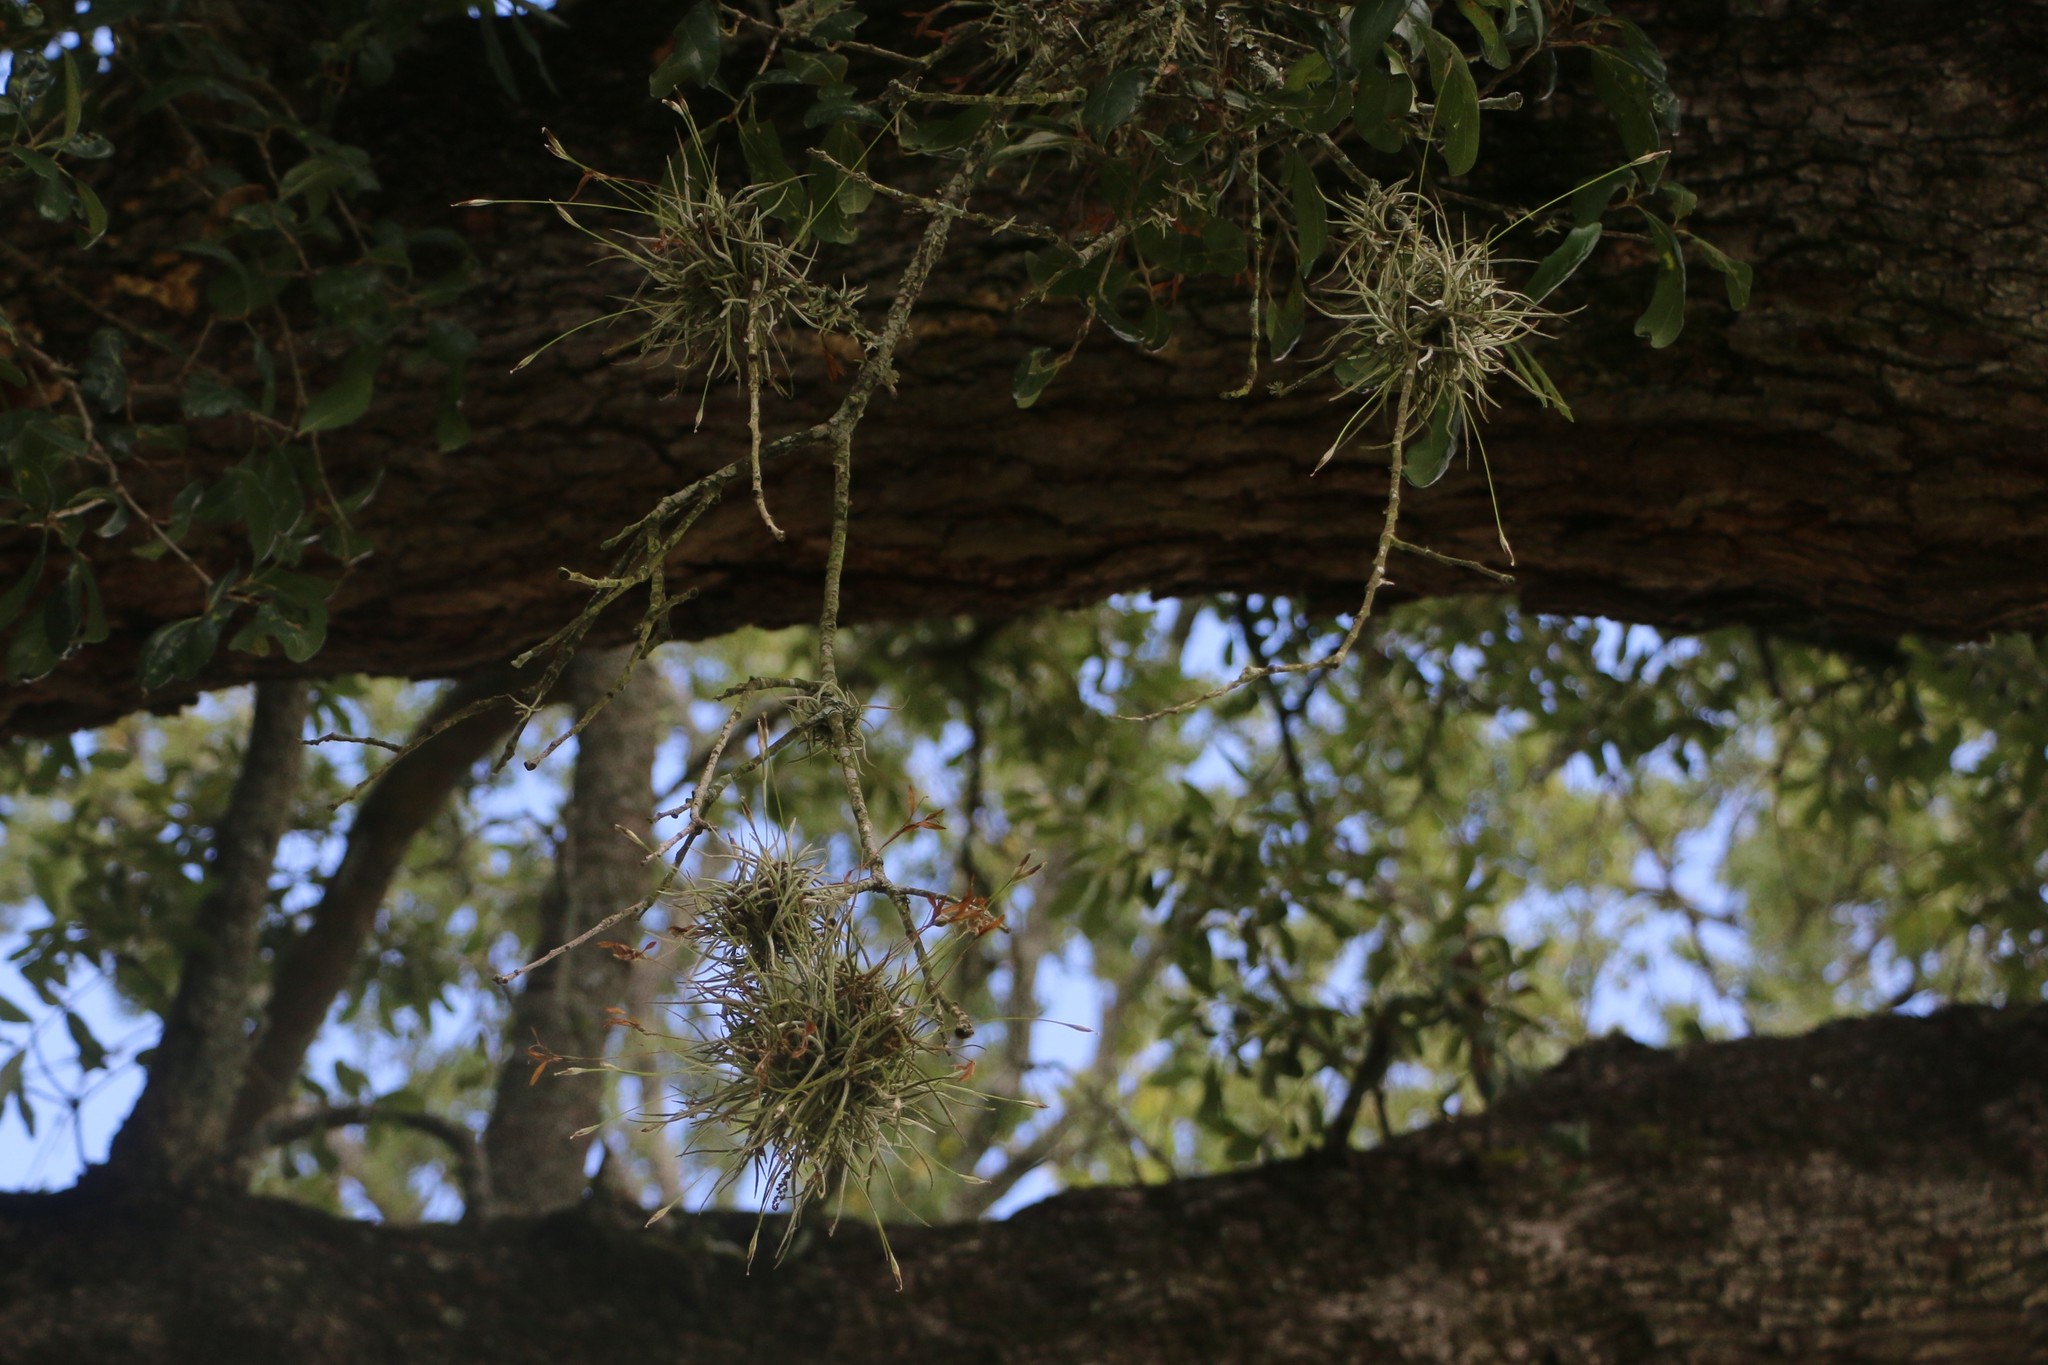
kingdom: Plantae
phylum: Tracheophyta
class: Liliopsida
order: Poales
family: Bromeliaceae
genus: Tillandsia
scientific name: Tillandsia recurvata
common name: Small ballmoss
